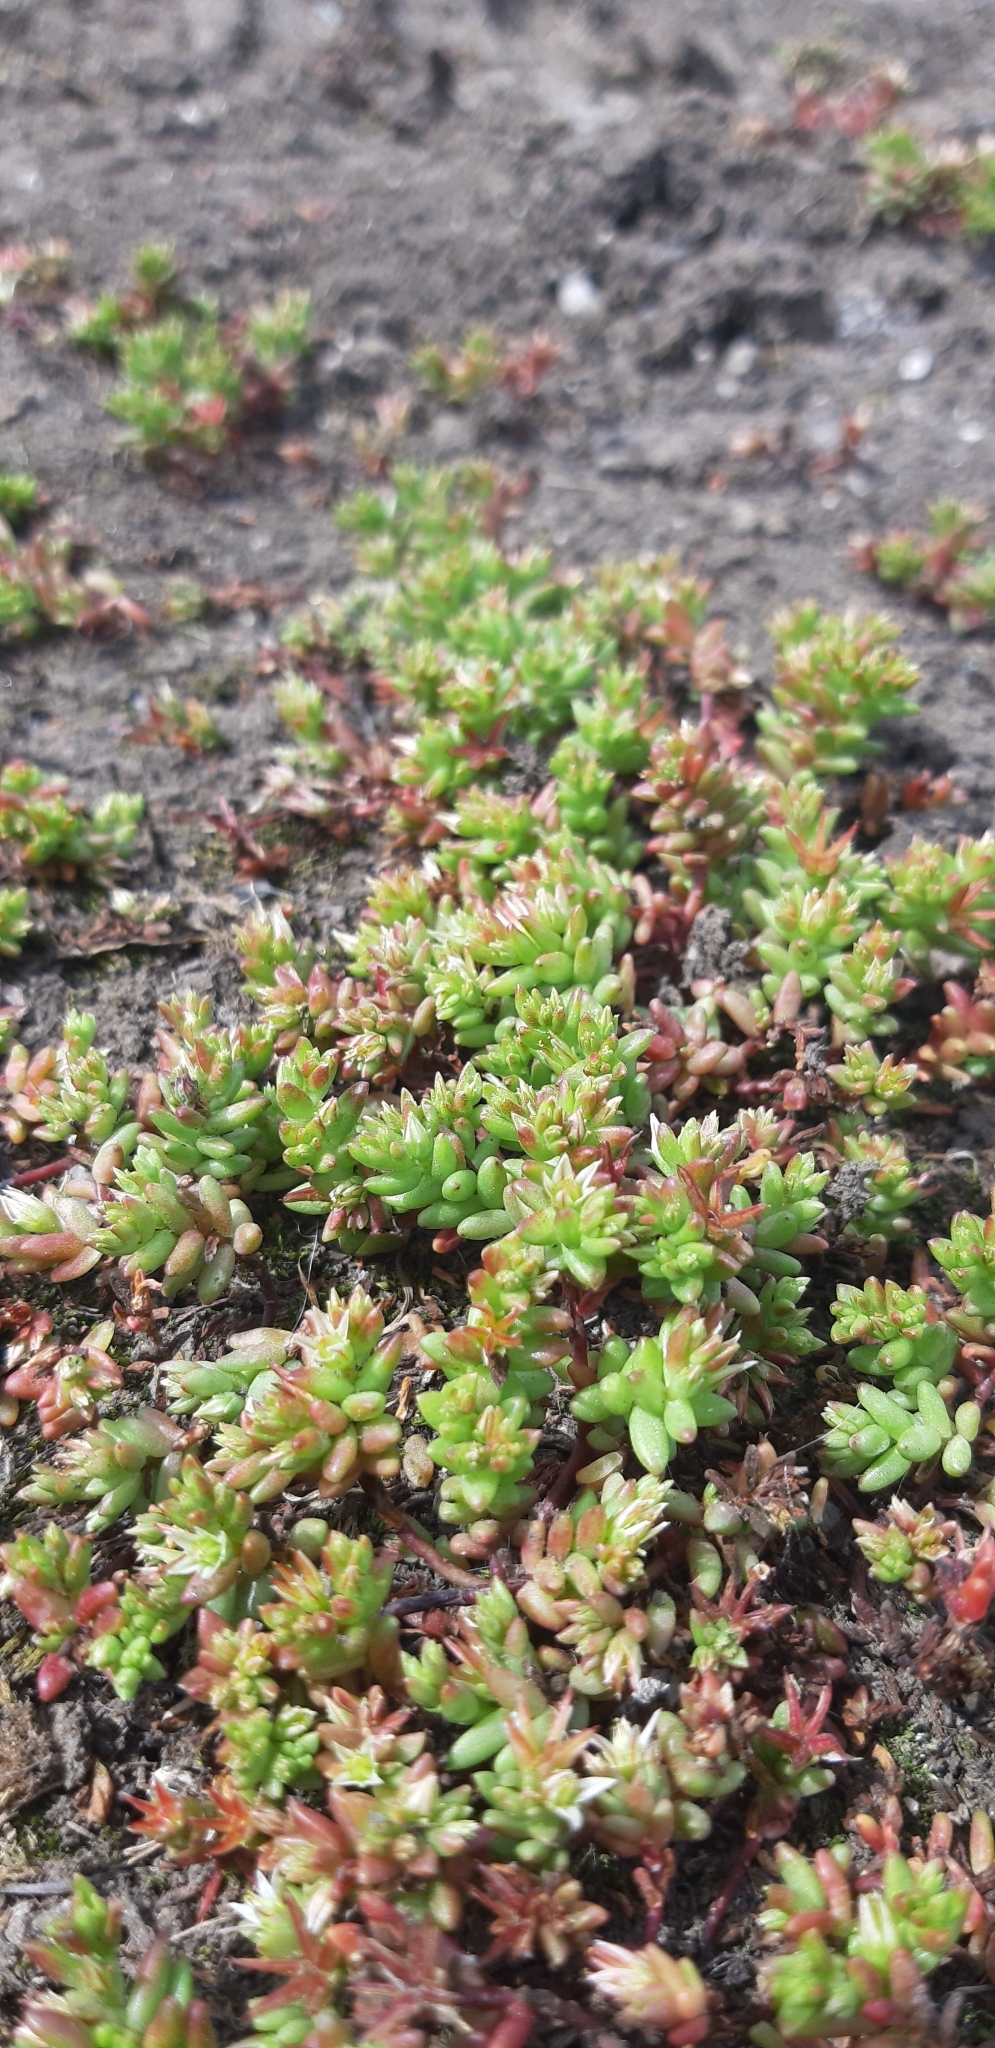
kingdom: Plantae
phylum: Tracheophyta
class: Magnoliopsida
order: Saxifragales
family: Crassulaceae
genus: Sedum
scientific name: Sedum cespitosum
